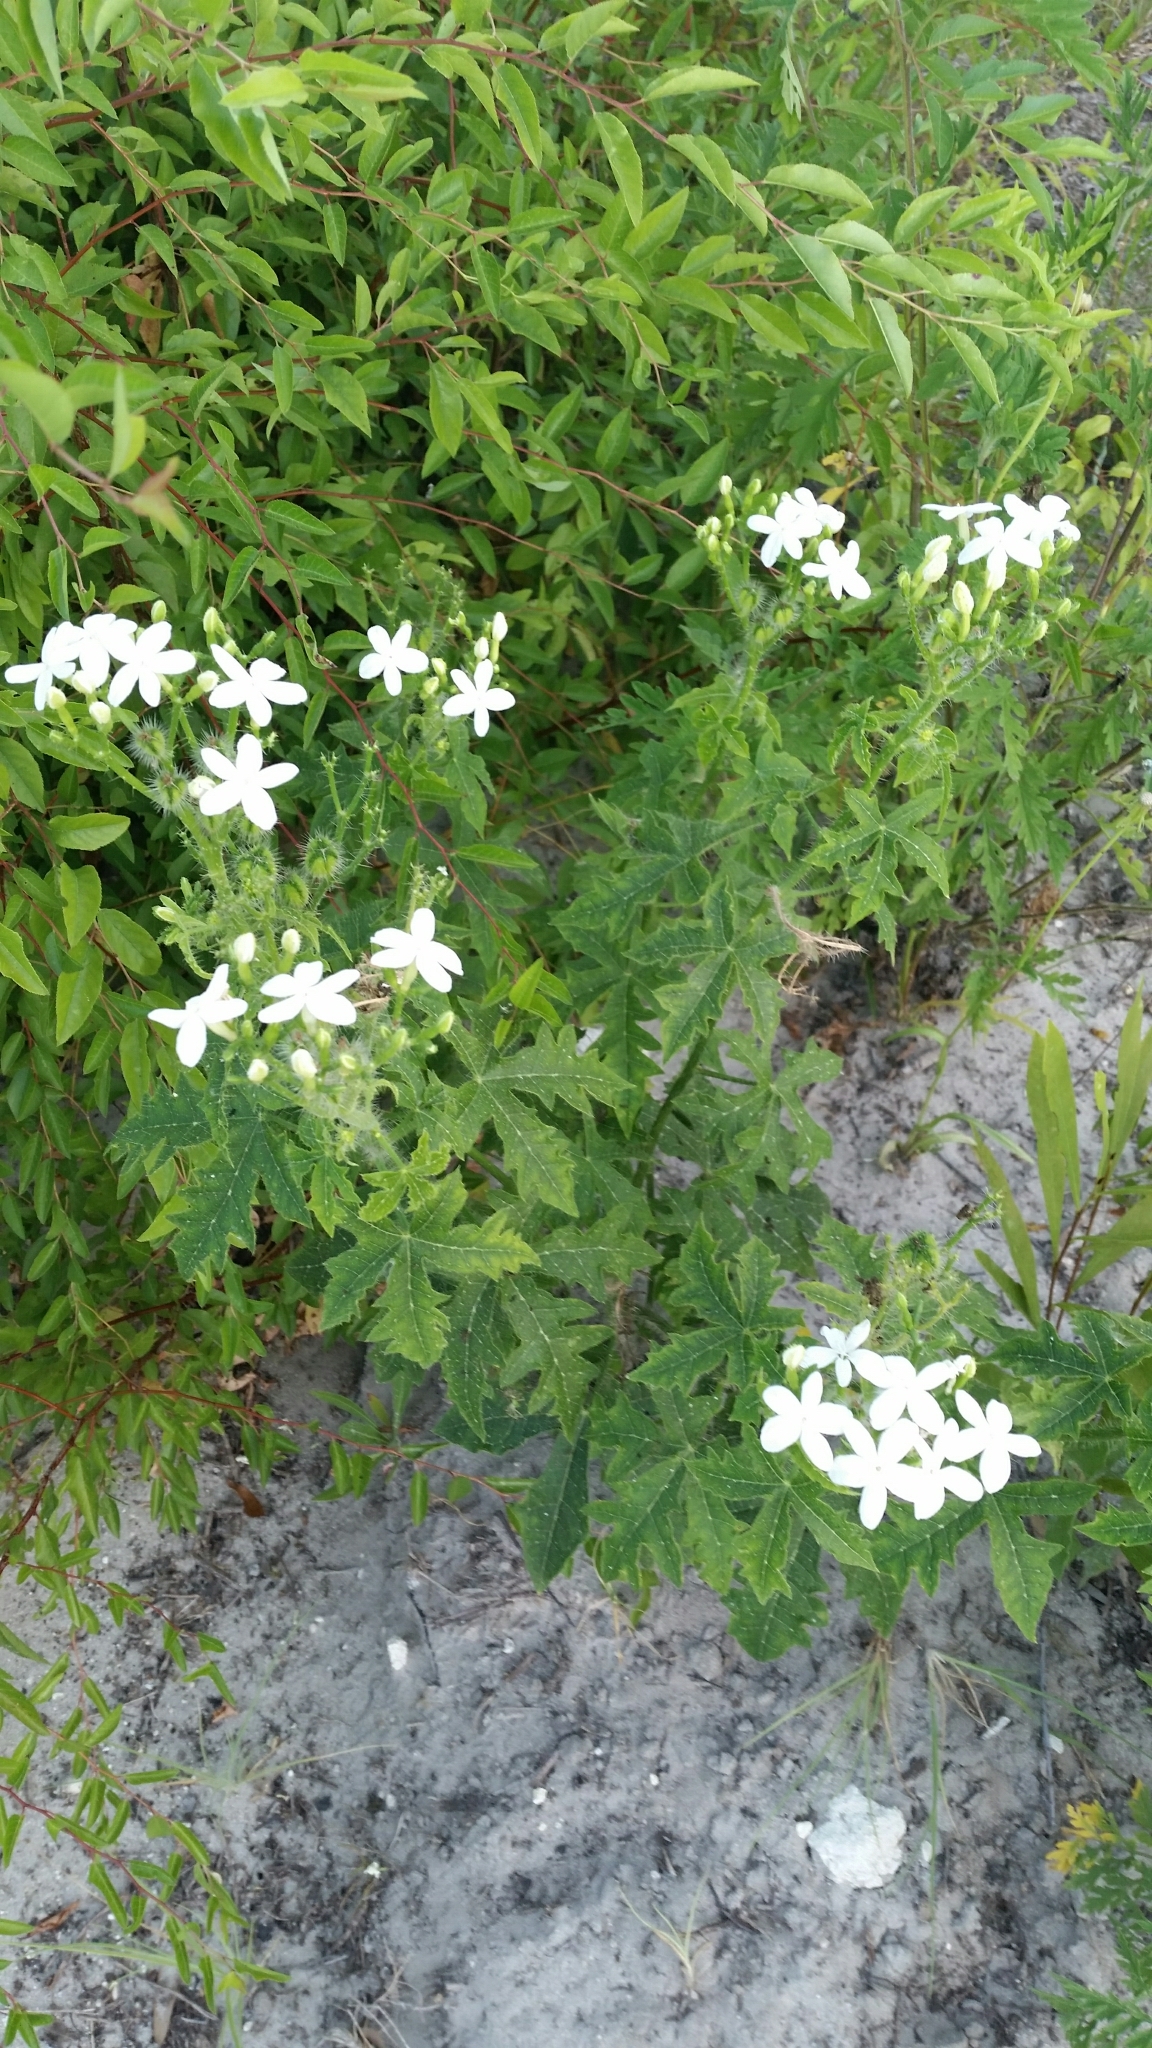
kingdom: Plantae
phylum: Tracheophyta
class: Magnoliopsida
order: Malpighiales
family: Euphorbiaceae
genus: Cnidoscolus
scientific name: Cnidoscolus stimulosus
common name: Bull-nettle
